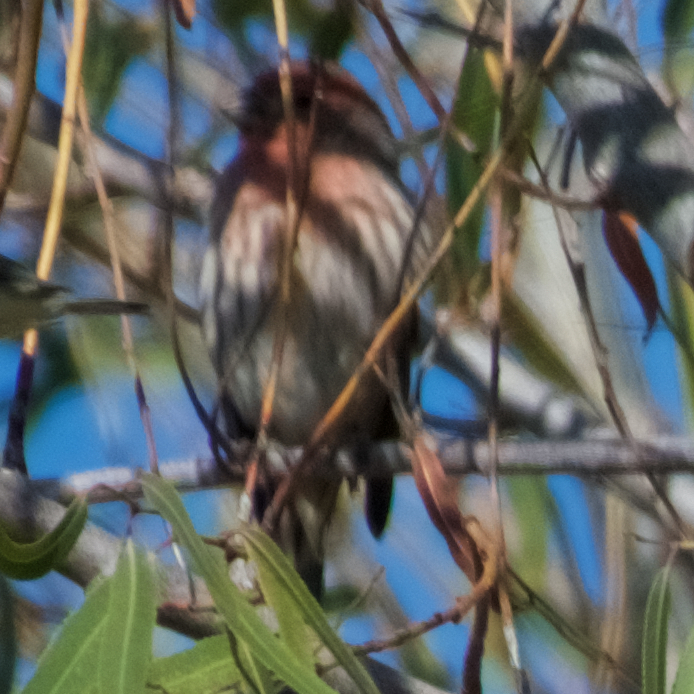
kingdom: Animalia
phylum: Chordata
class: Aves
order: Passeriformes
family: Fringillidae
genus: Haemorhous
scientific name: Haemorhous mexicanus
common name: House finch
